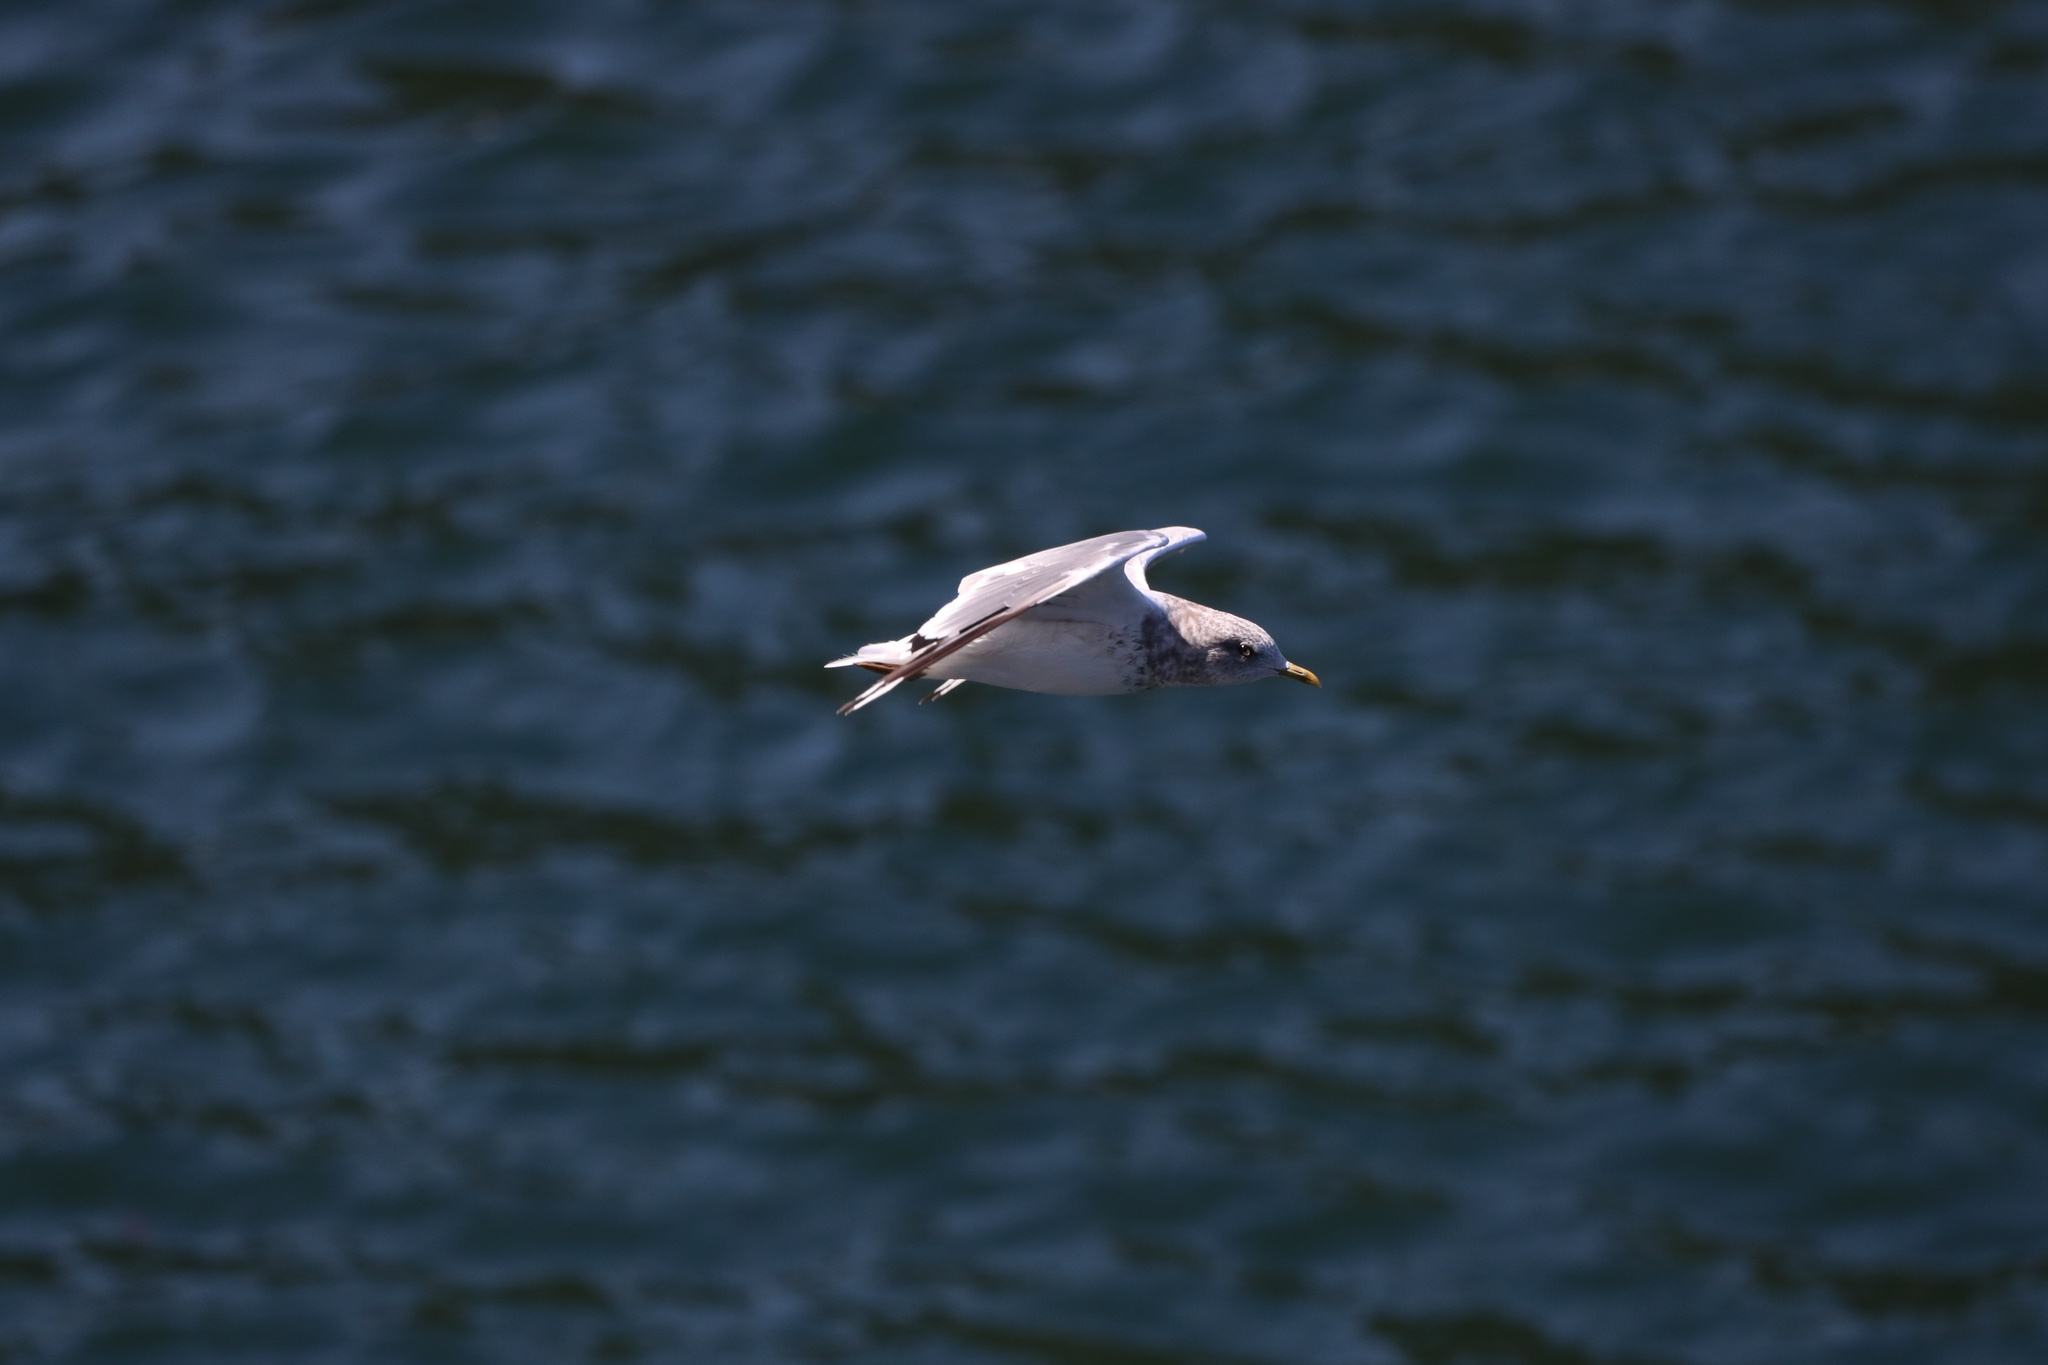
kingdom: Animalia
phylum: Chordata
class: Aves
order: Charadriiformes
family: Laridae
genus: Larus
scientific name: Larus brachyrhynchus
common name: Short-billed gull
